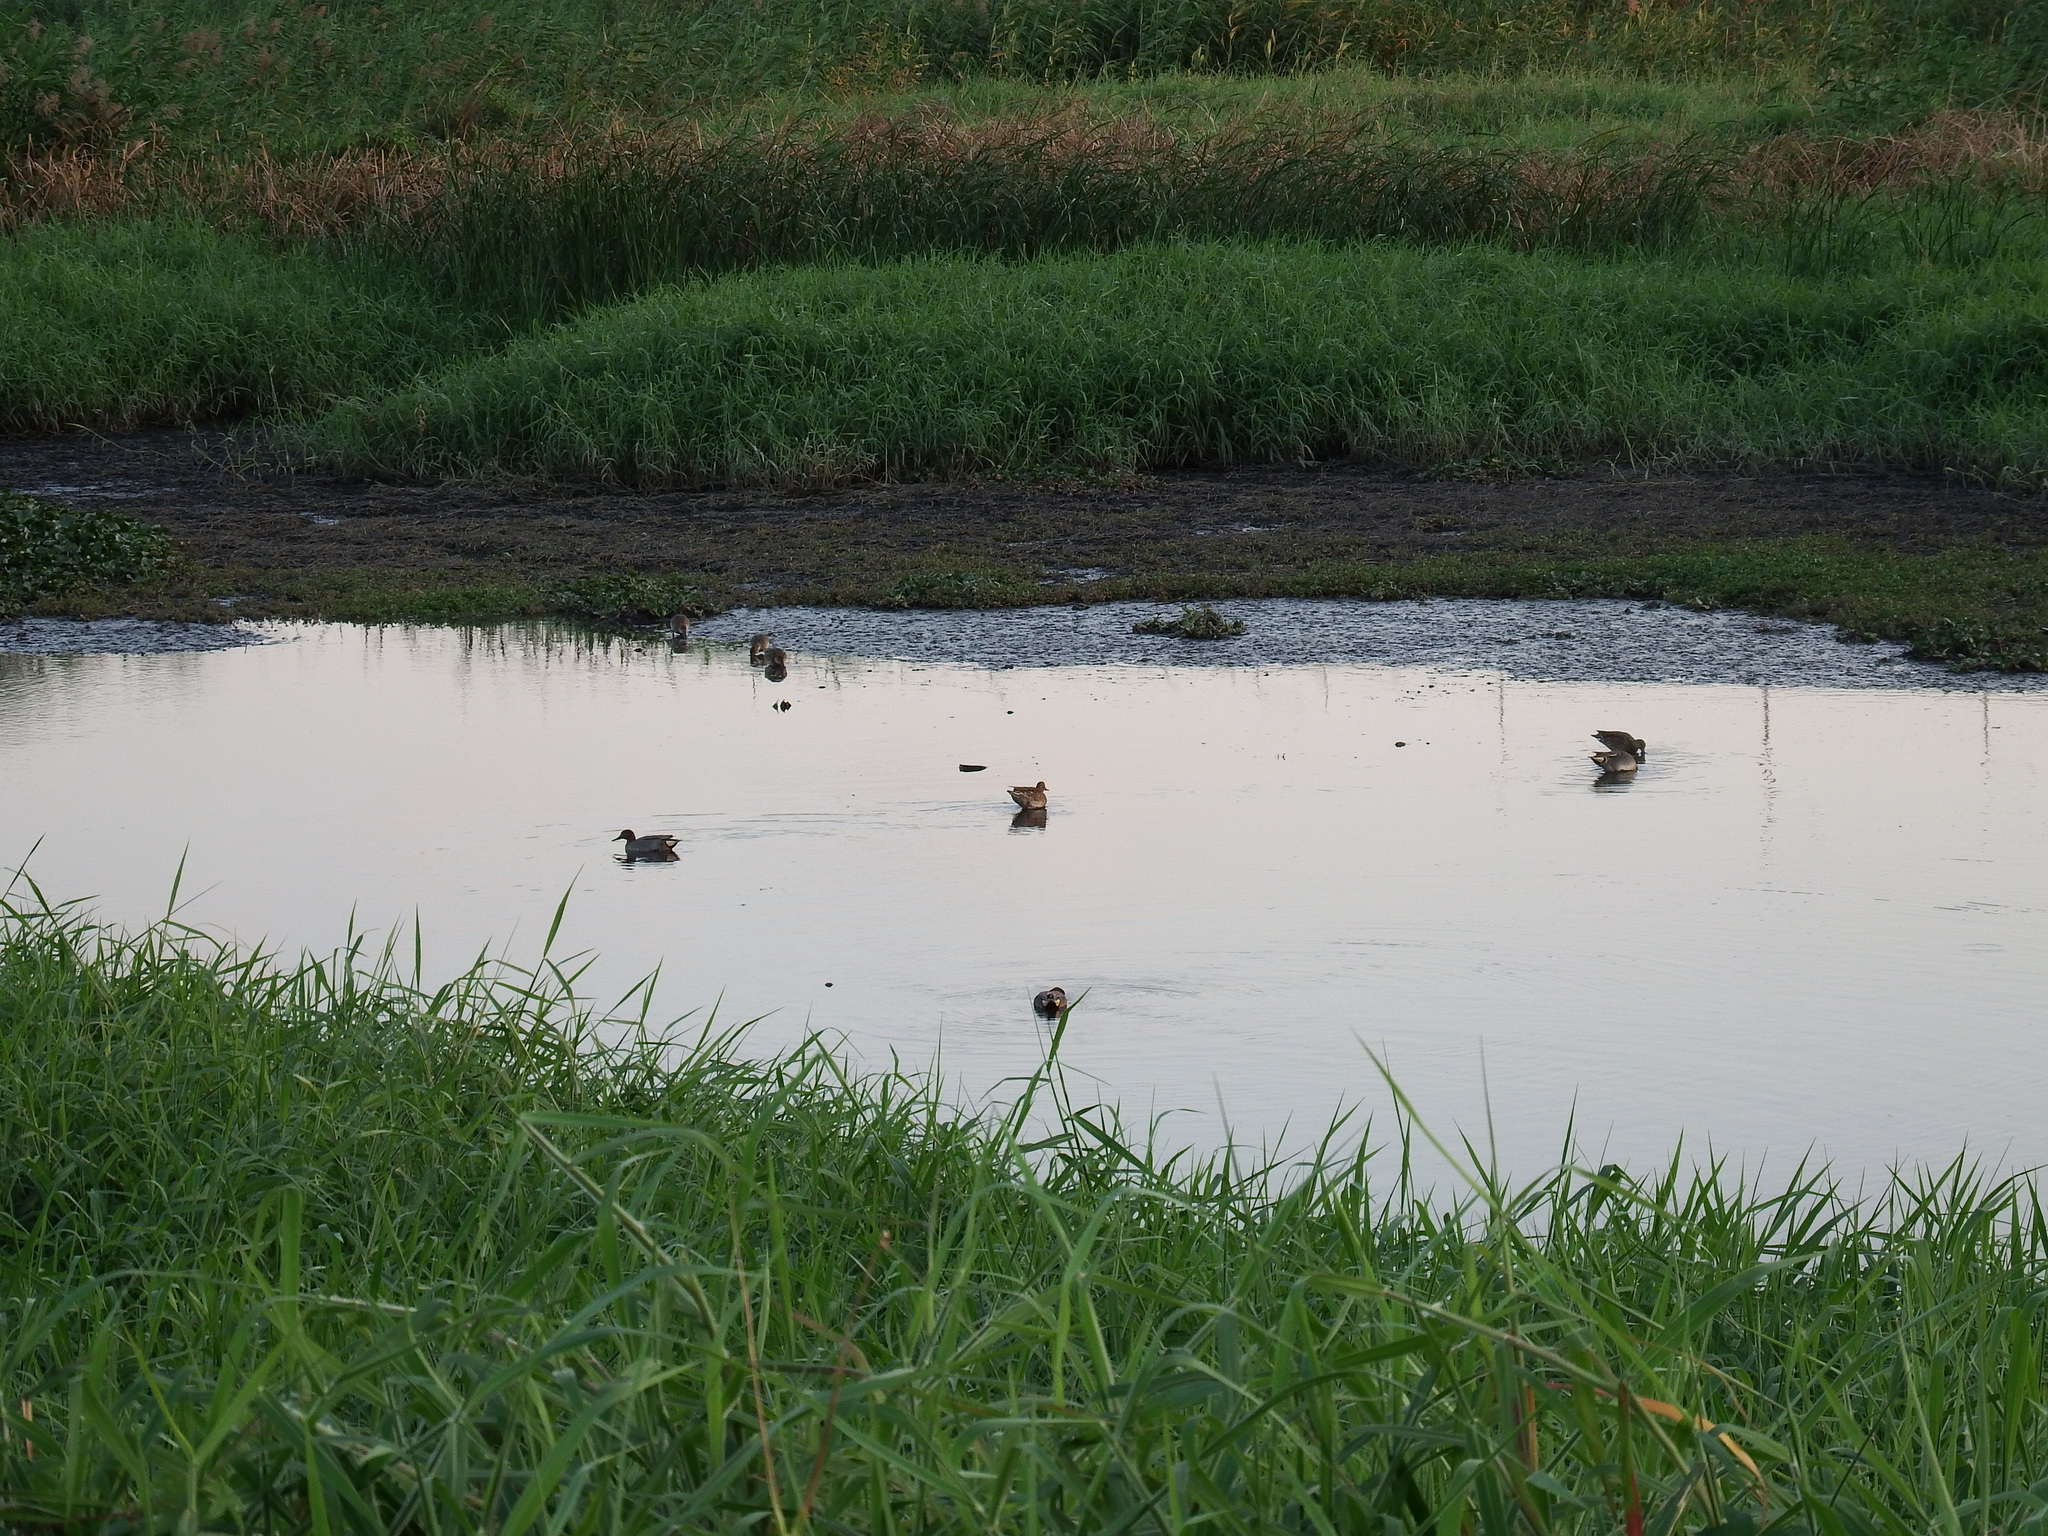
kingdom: Animalia
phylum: Chordata
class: Aves
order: Anseriformes
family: Anatidae
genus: Anas
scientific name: Anas crecca
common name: Eurasian teal
